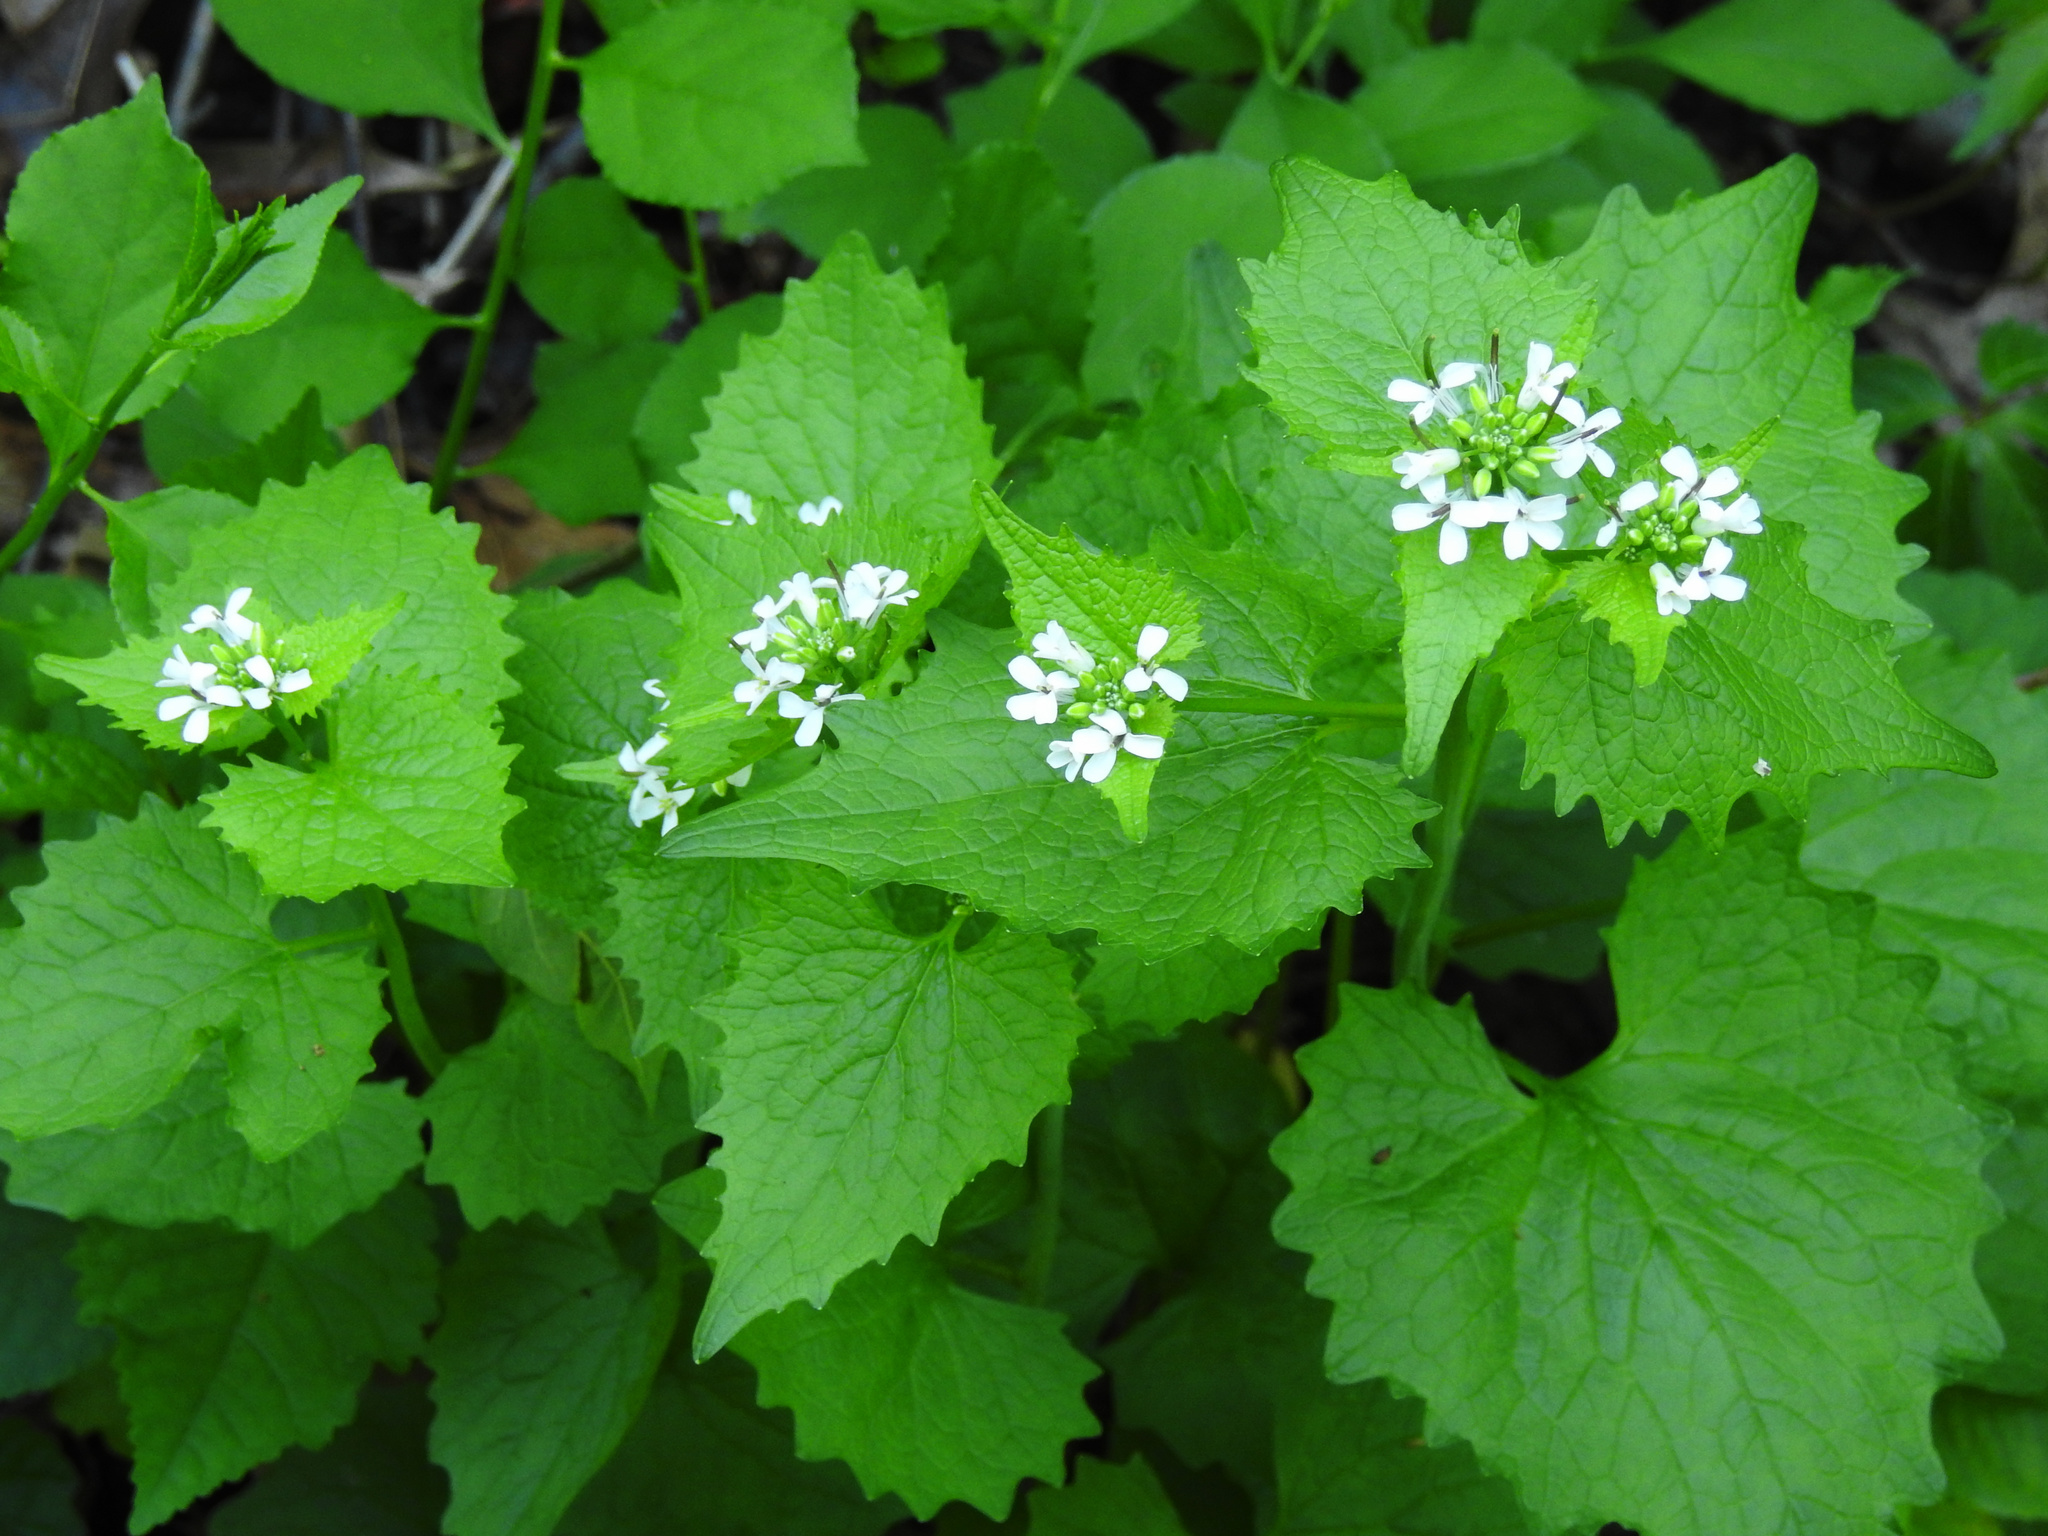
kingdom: Plantae
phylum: Tracheophyta
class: Magnoliopsida
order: Brassicales
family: Brassicaceae
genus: Alliaria
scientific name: Alliaria petiolata
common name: Garlic mustard
